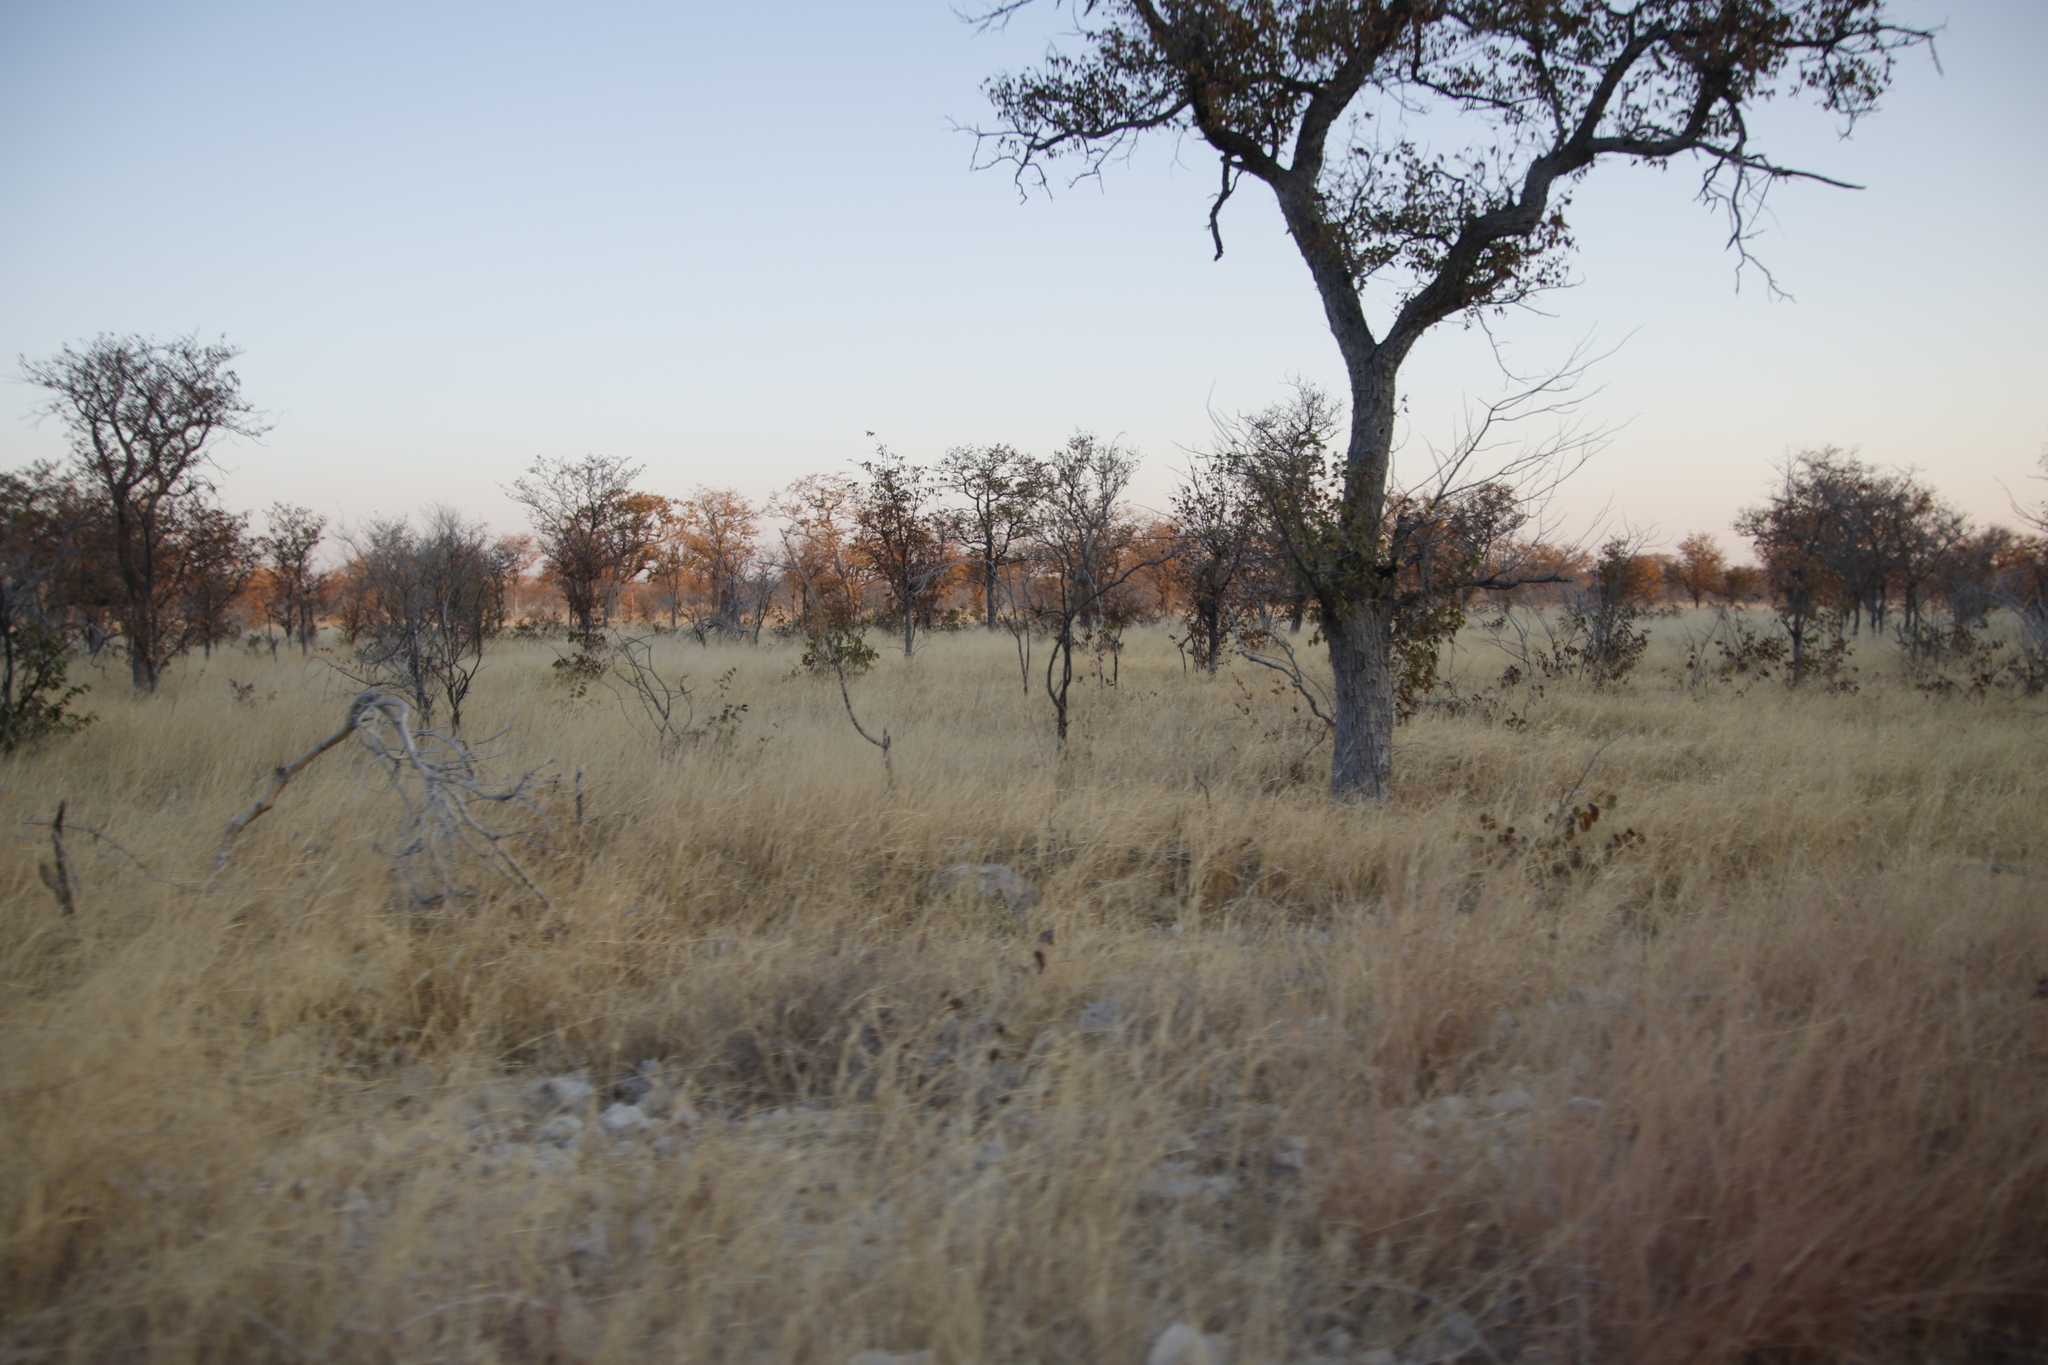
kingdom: Plantae
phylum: Tracheophyta
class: Magnoliopsida
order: Fabales
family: Fabaceae
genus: Colophospermum
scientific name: Colophospermum mopane
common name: Mopane
